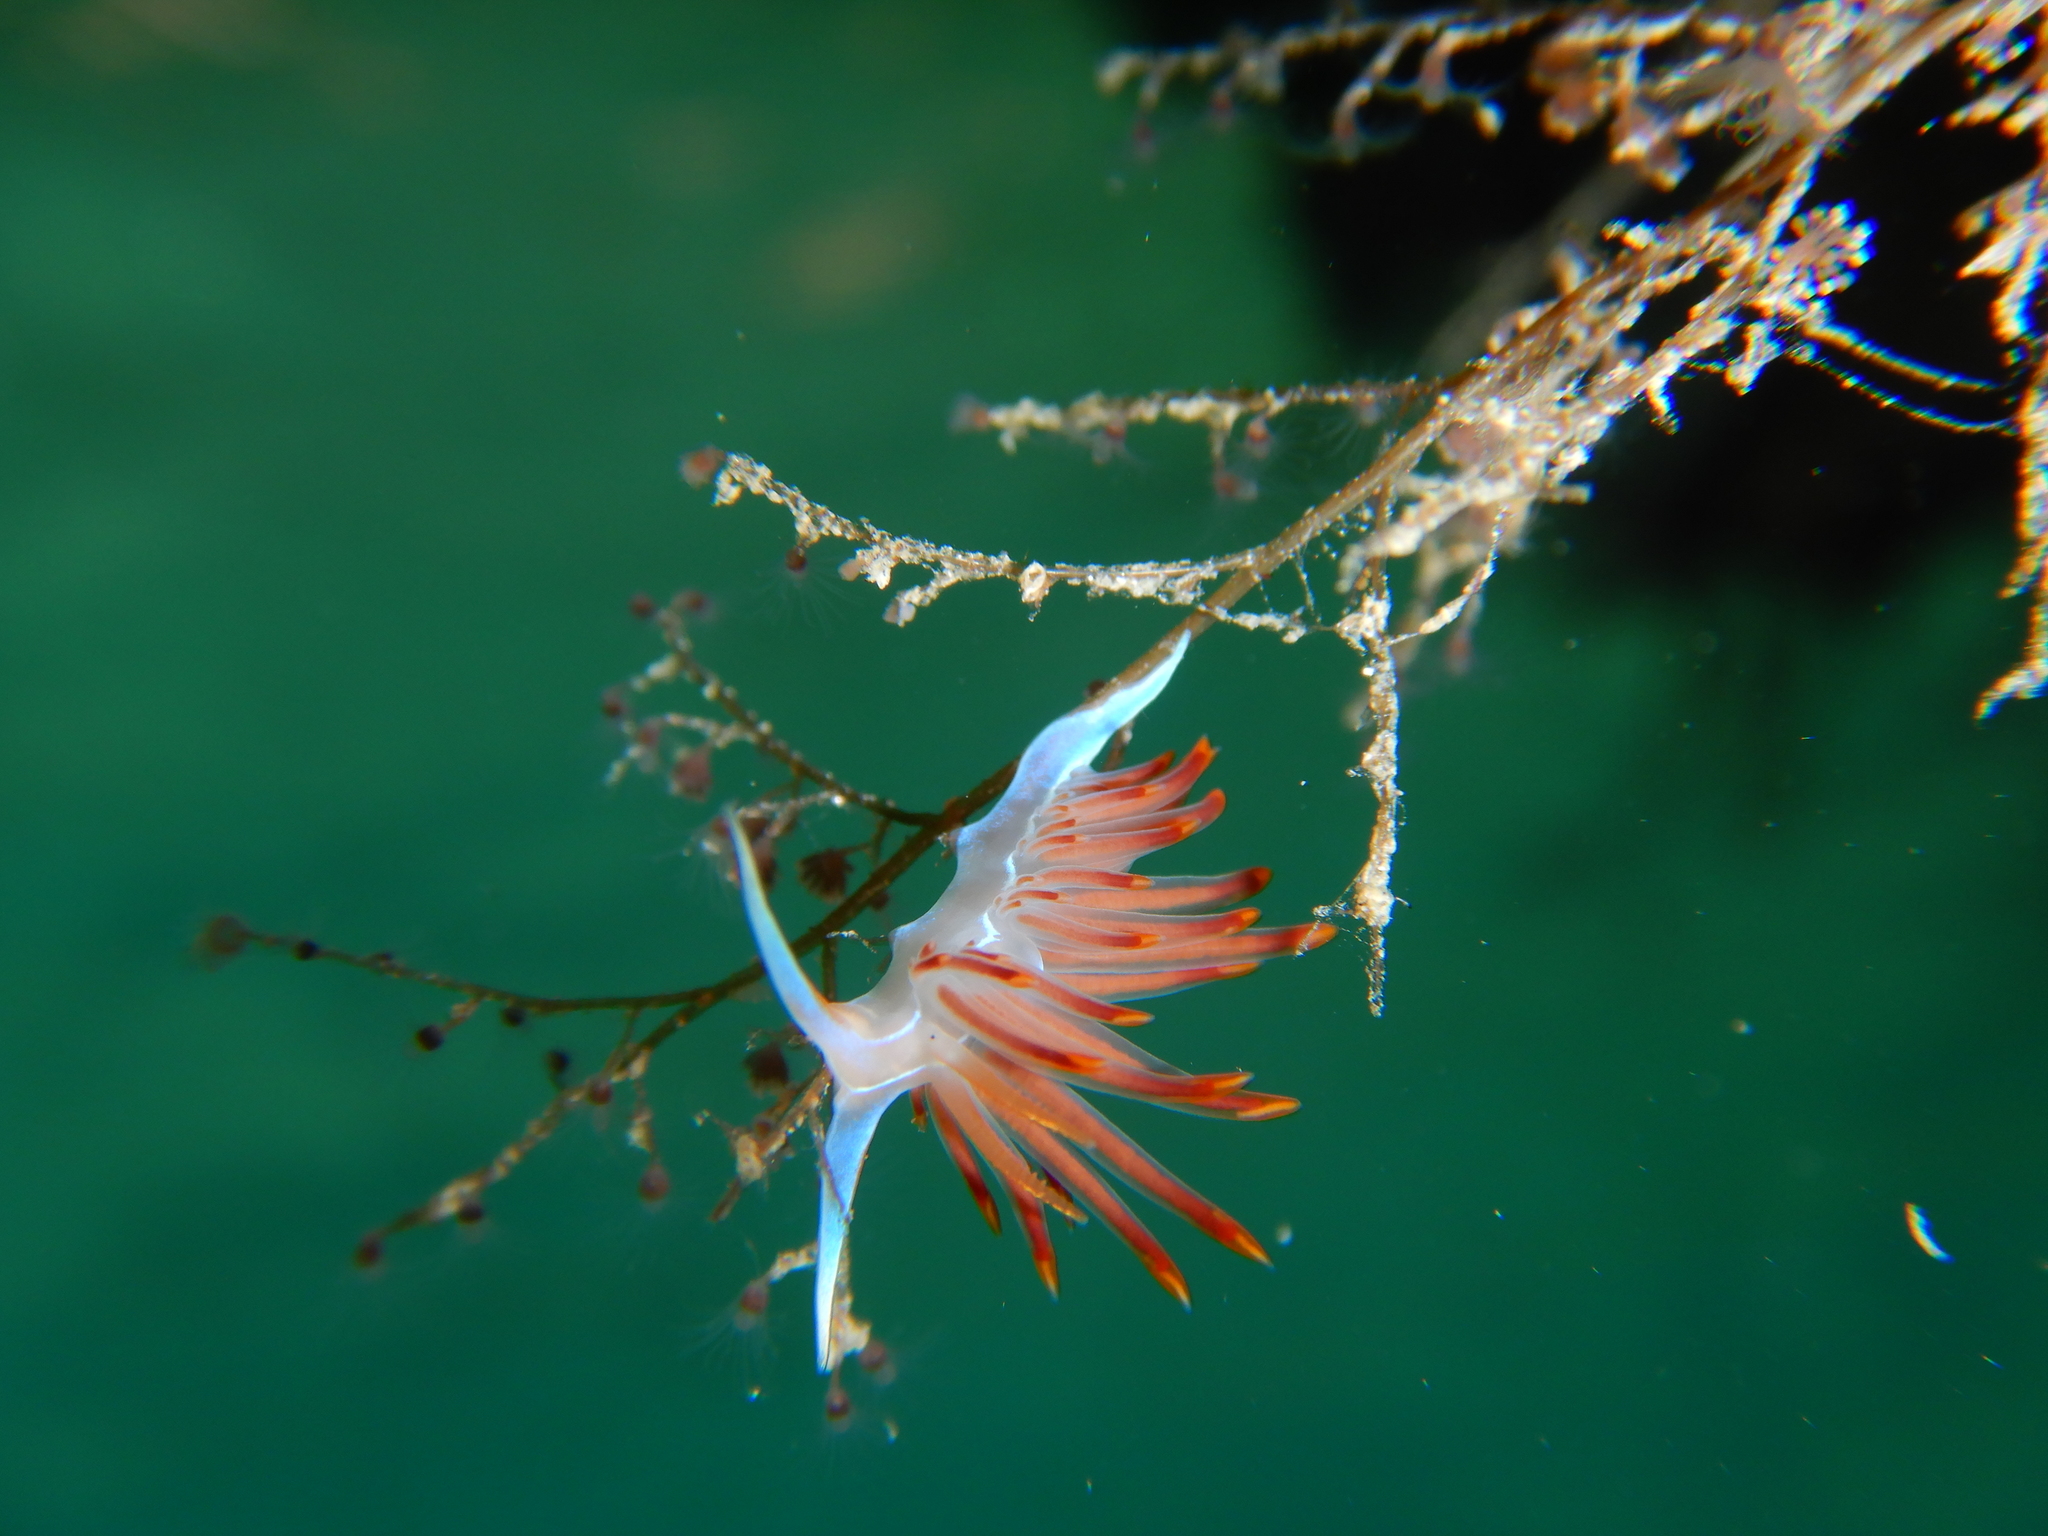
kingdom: Animalia
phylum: Mollusca
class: Gastropoda
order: Nudibranchia
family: Myrrhinidae
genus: Nemesignis
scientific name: Nemesignis banyulensis
